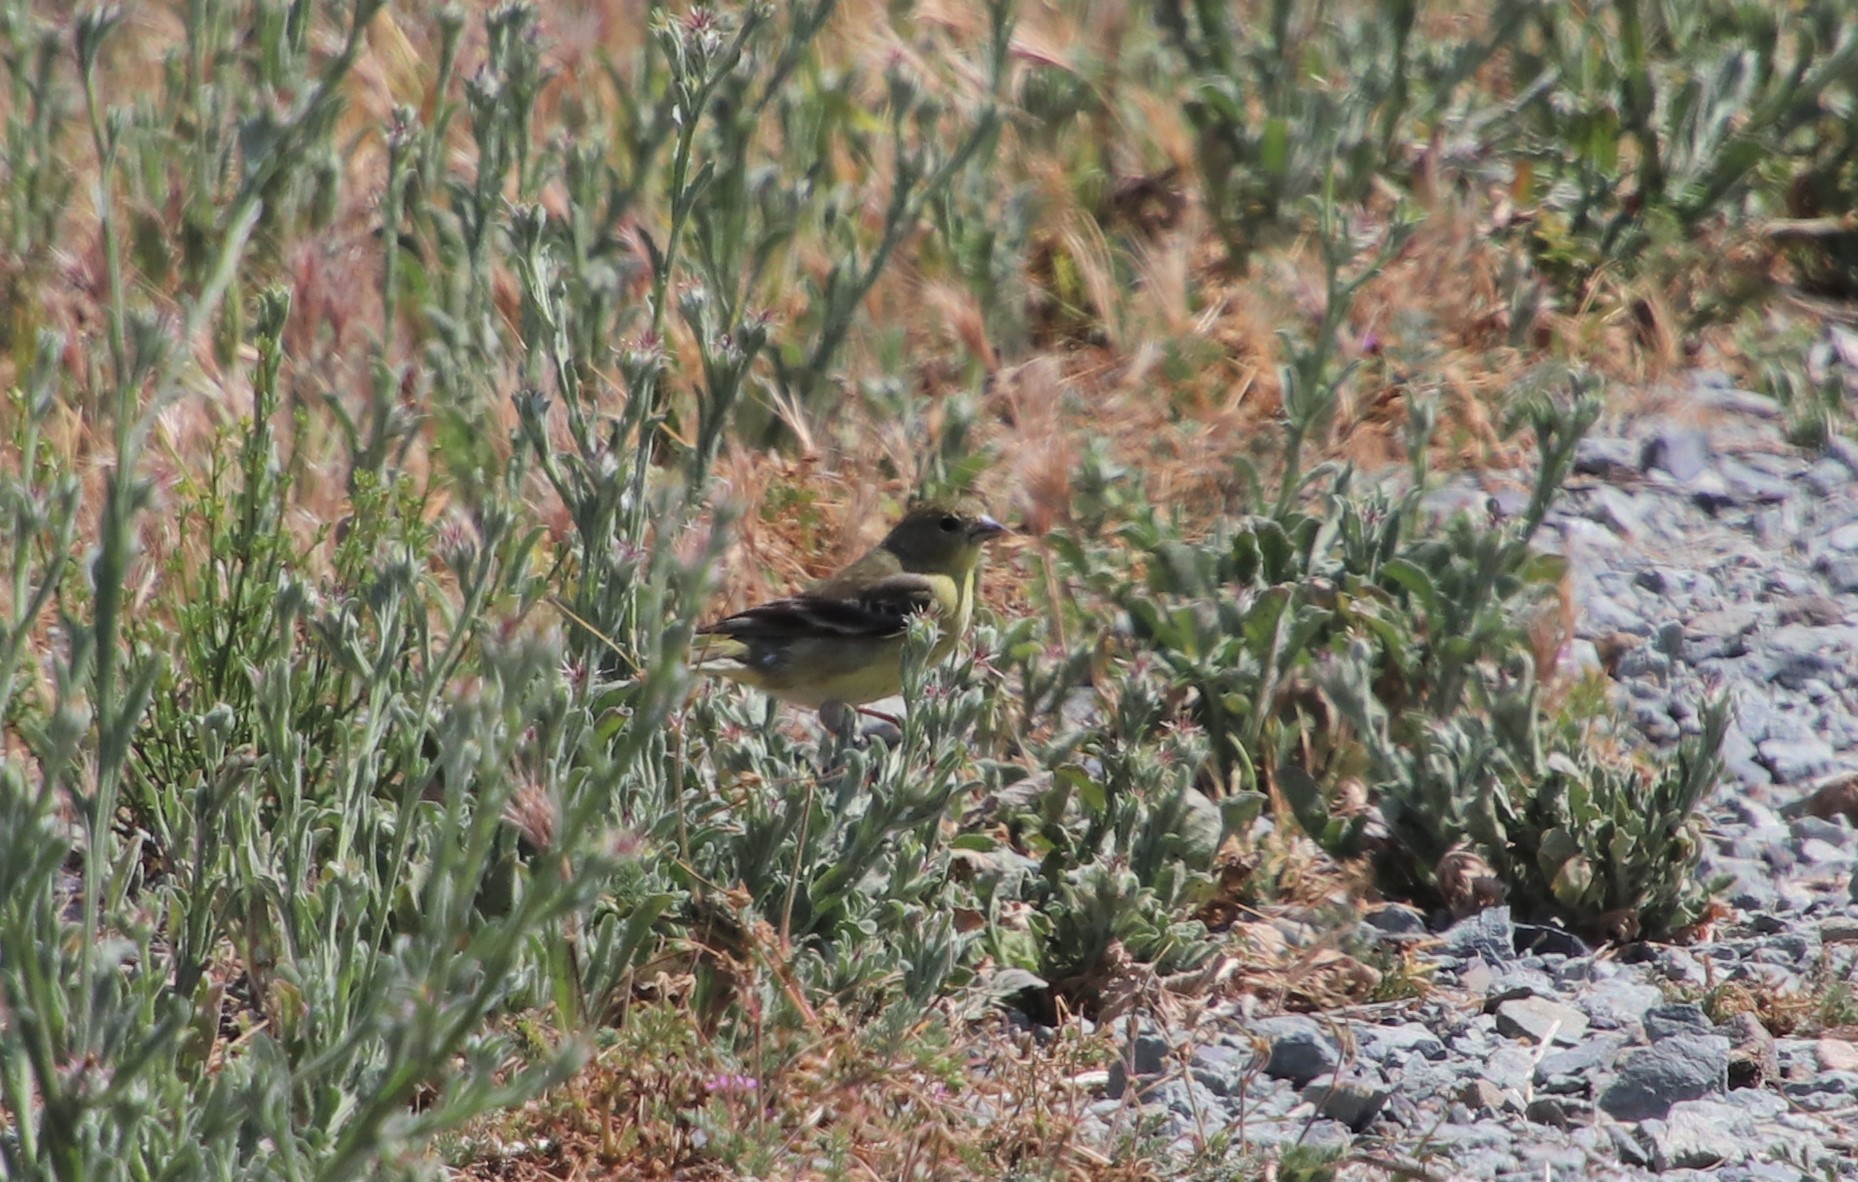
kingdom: Animalia
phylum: Chordata
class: Aves
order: Passeriformes
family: Fringillidae
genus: Spinus
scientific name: Spinus psaltria
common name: Lesser goldfinch
